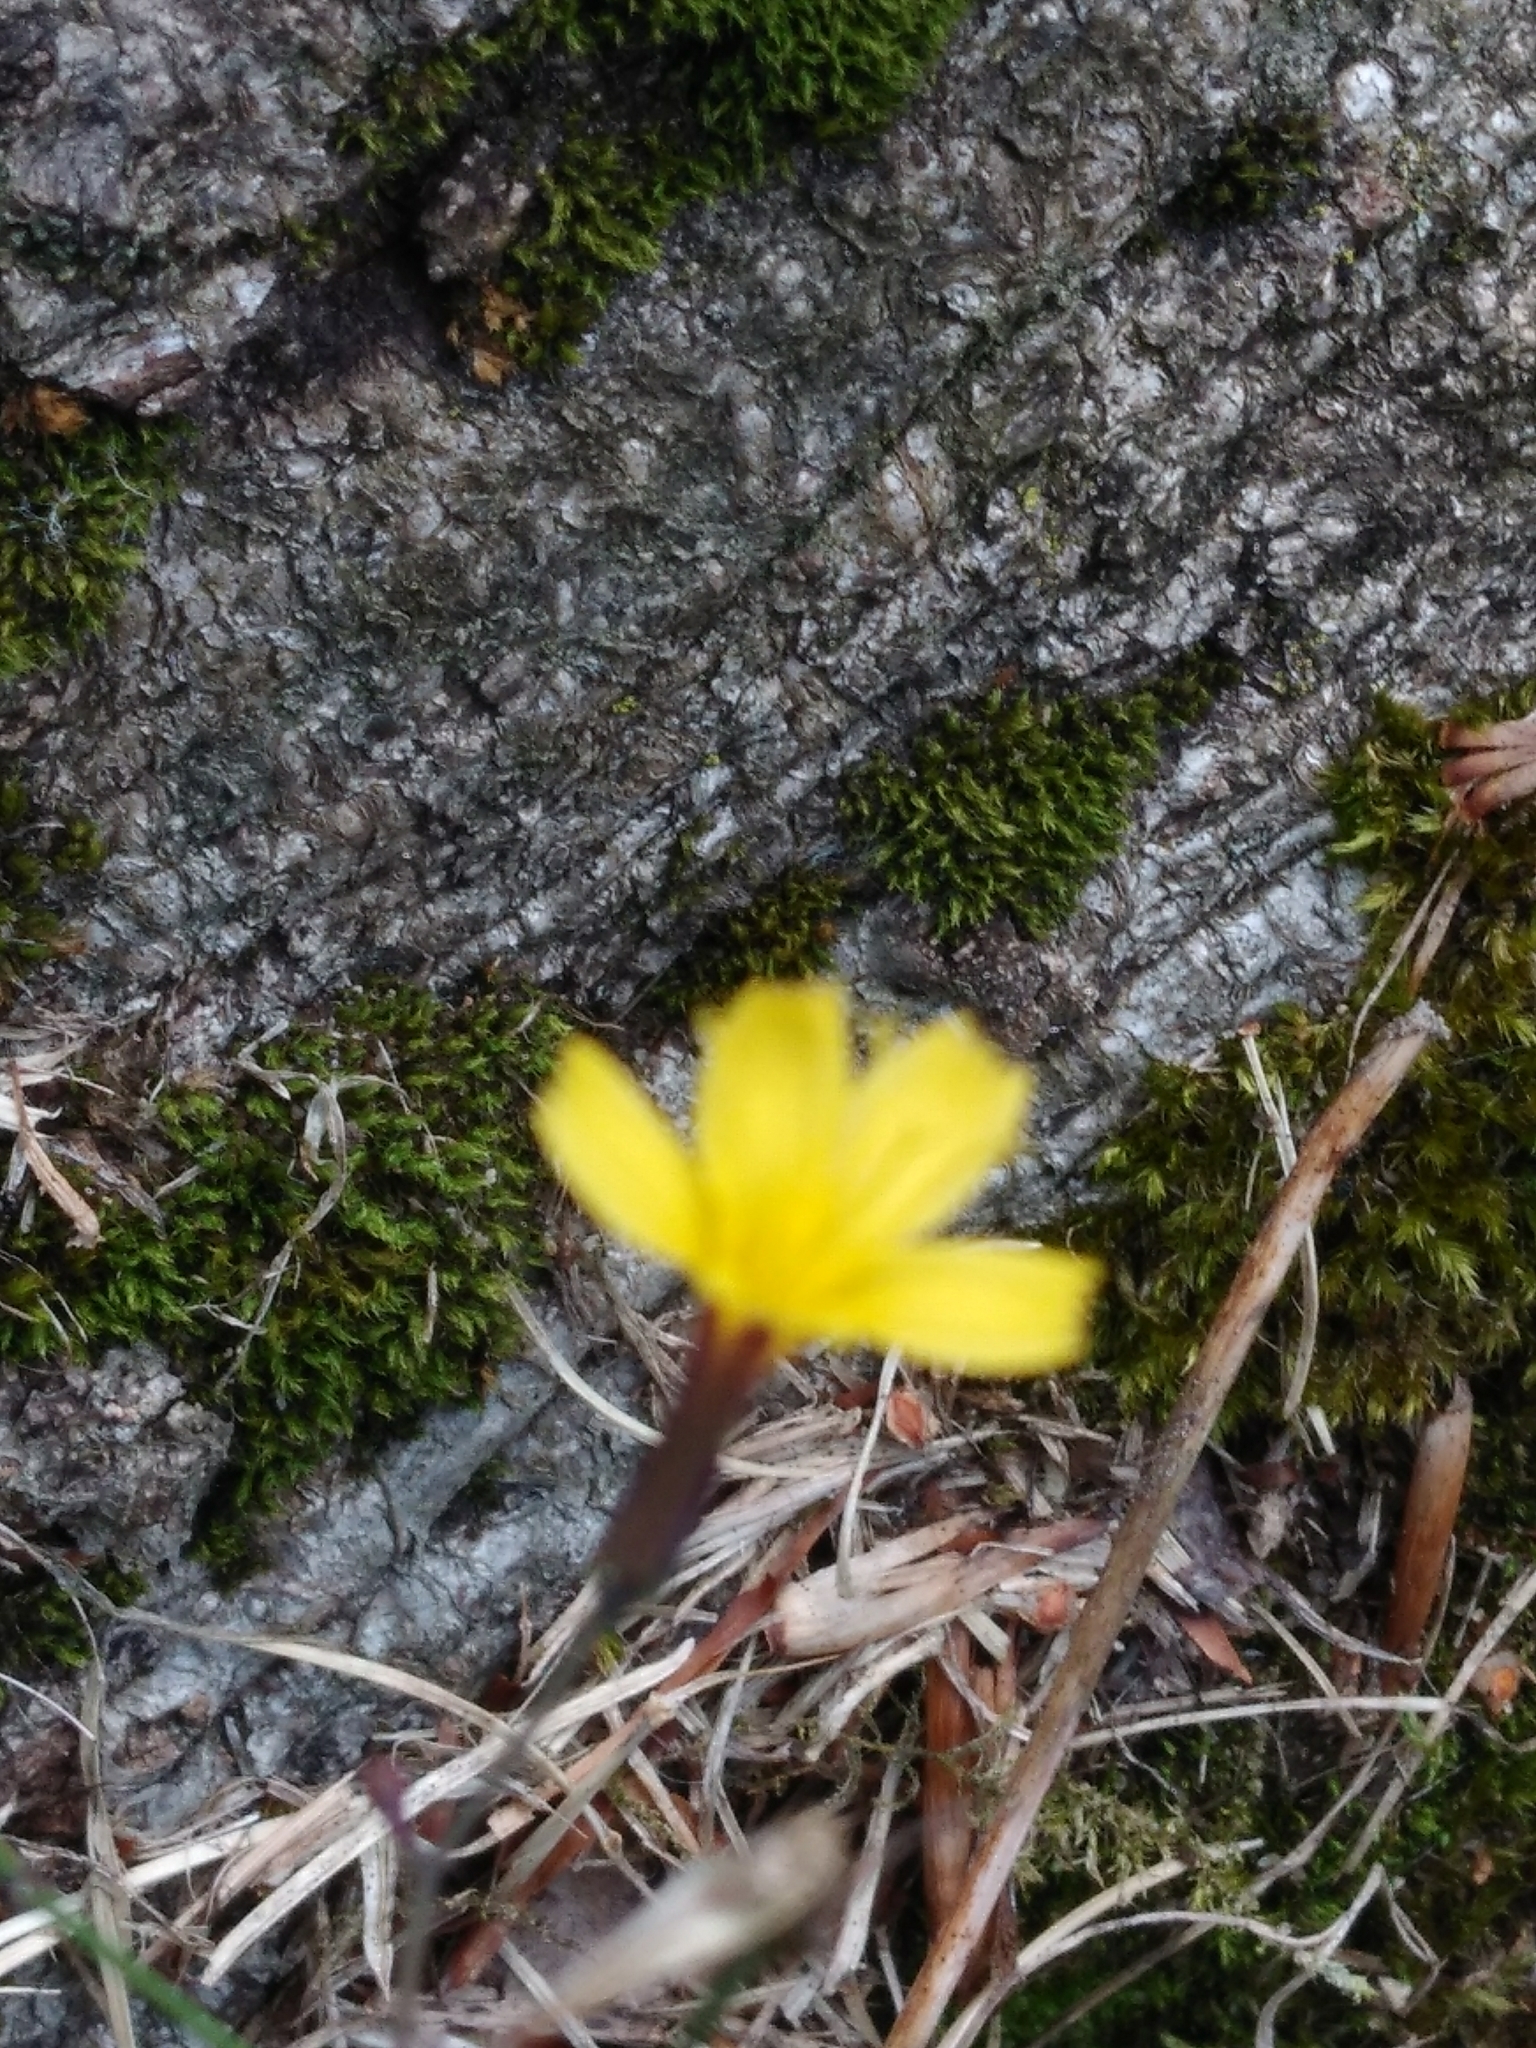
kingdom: Plantae
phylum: Tracheophyta
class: Magnoliopsida
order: Asterales
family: Asteraceae
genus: Mycelis
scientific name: Mycelis muralis
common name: Wall lettuce
